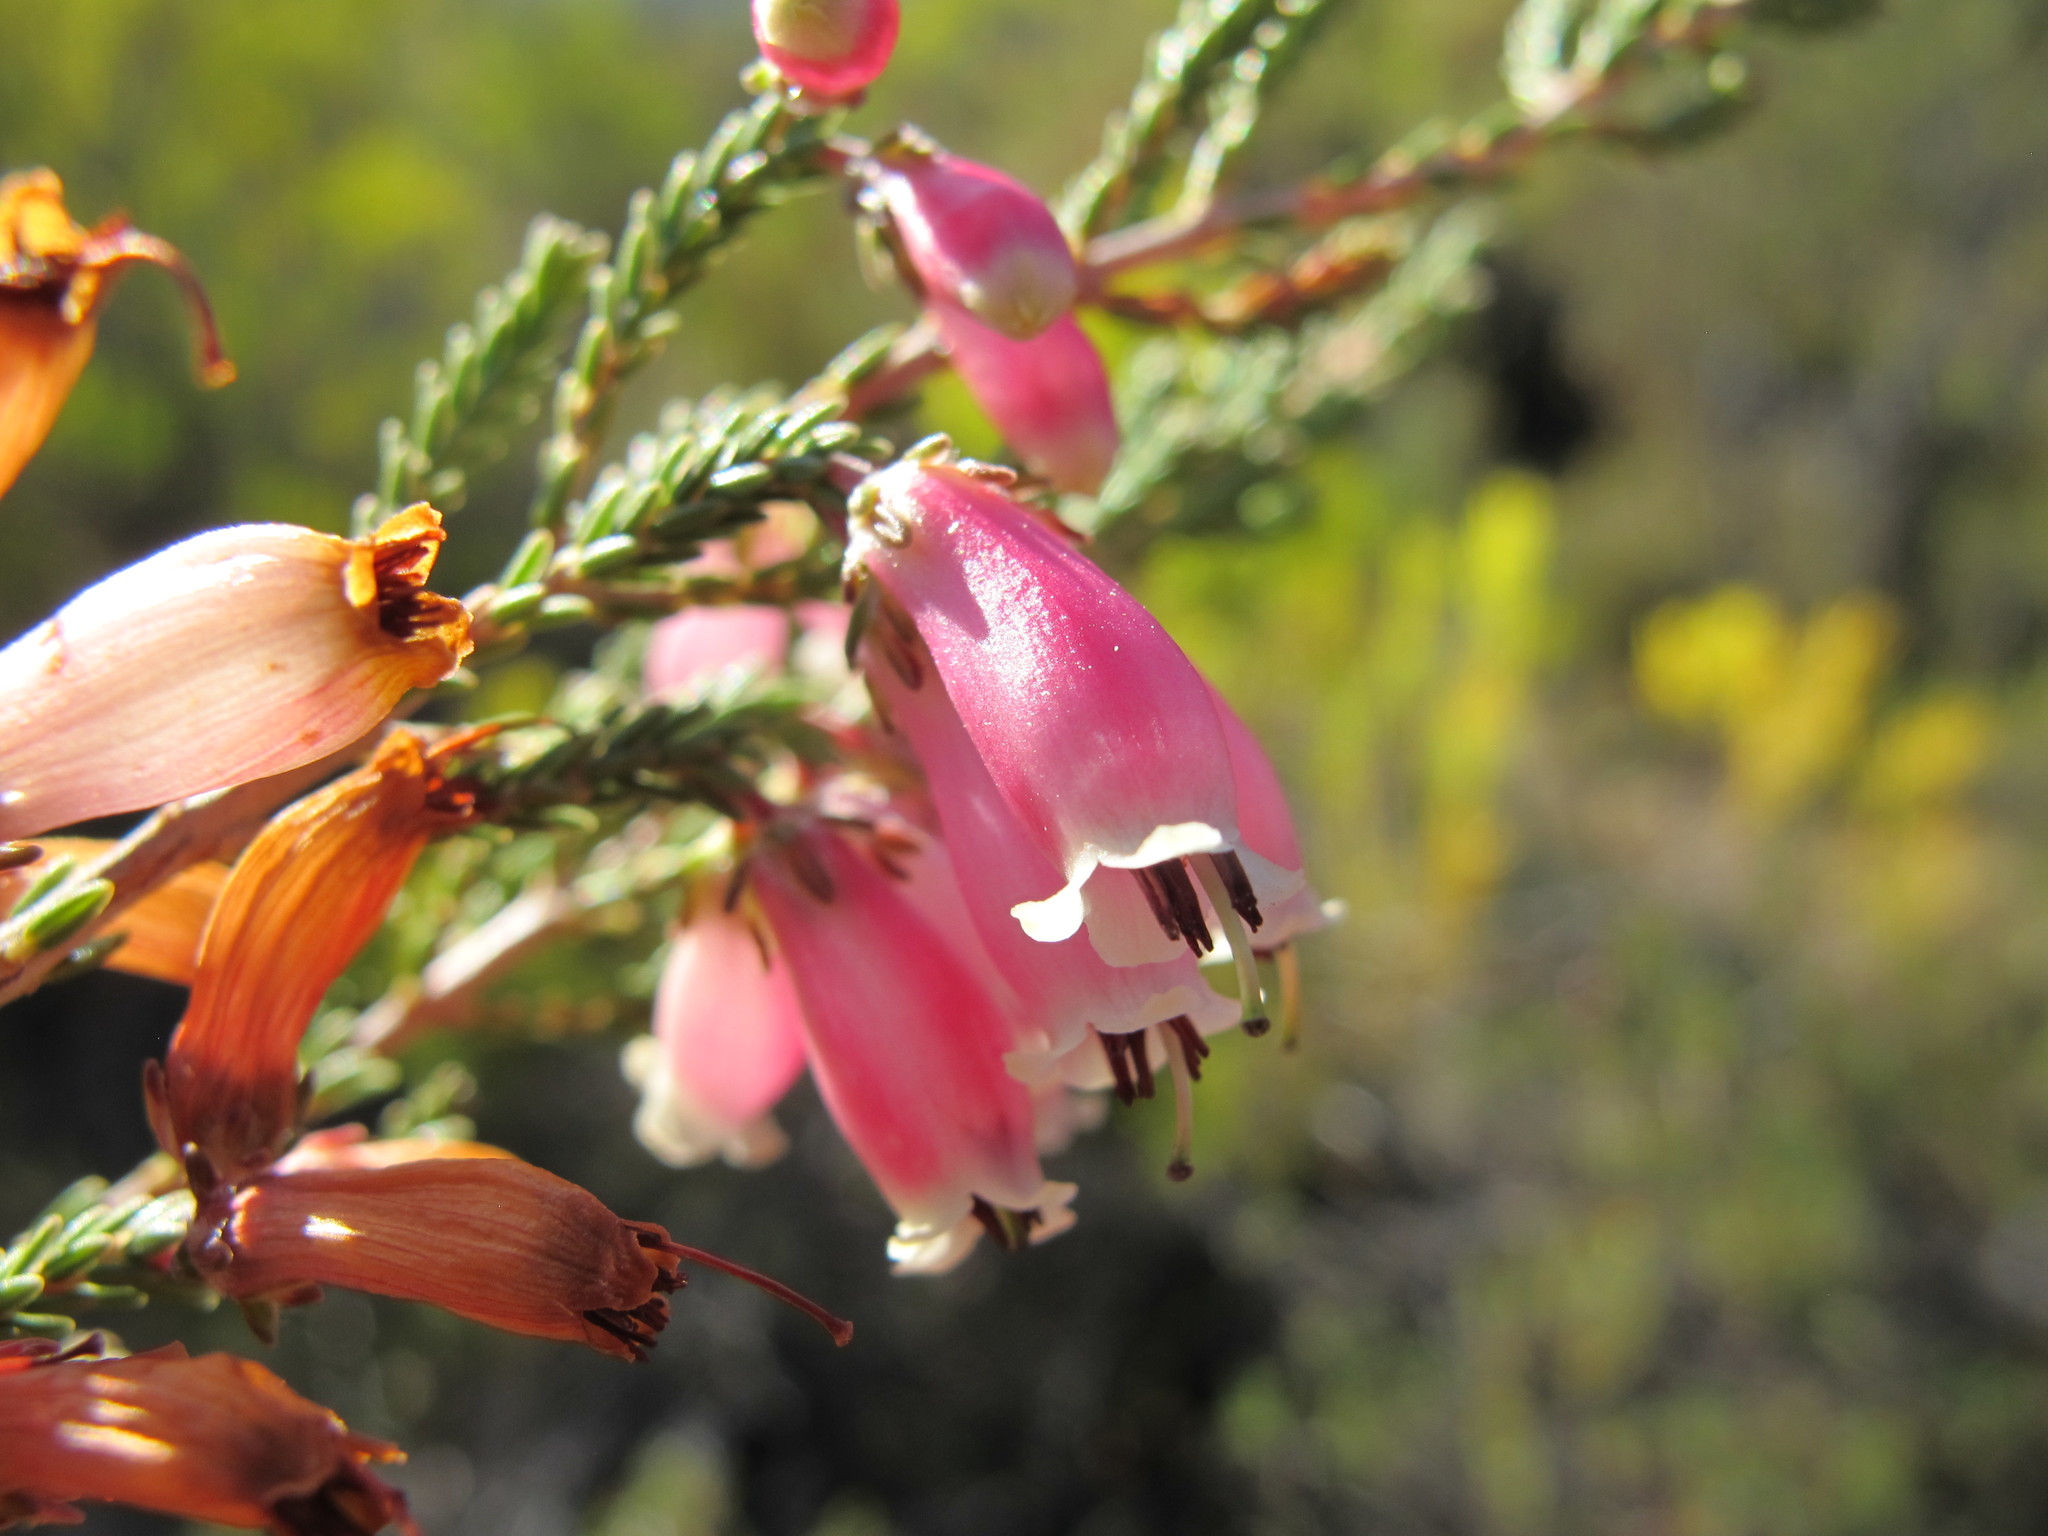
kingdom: Plantae
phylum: Tracheophyta
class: Magnoliopsida
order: Ericales
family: Ericaceae
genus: Erica
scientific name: Erica recta
